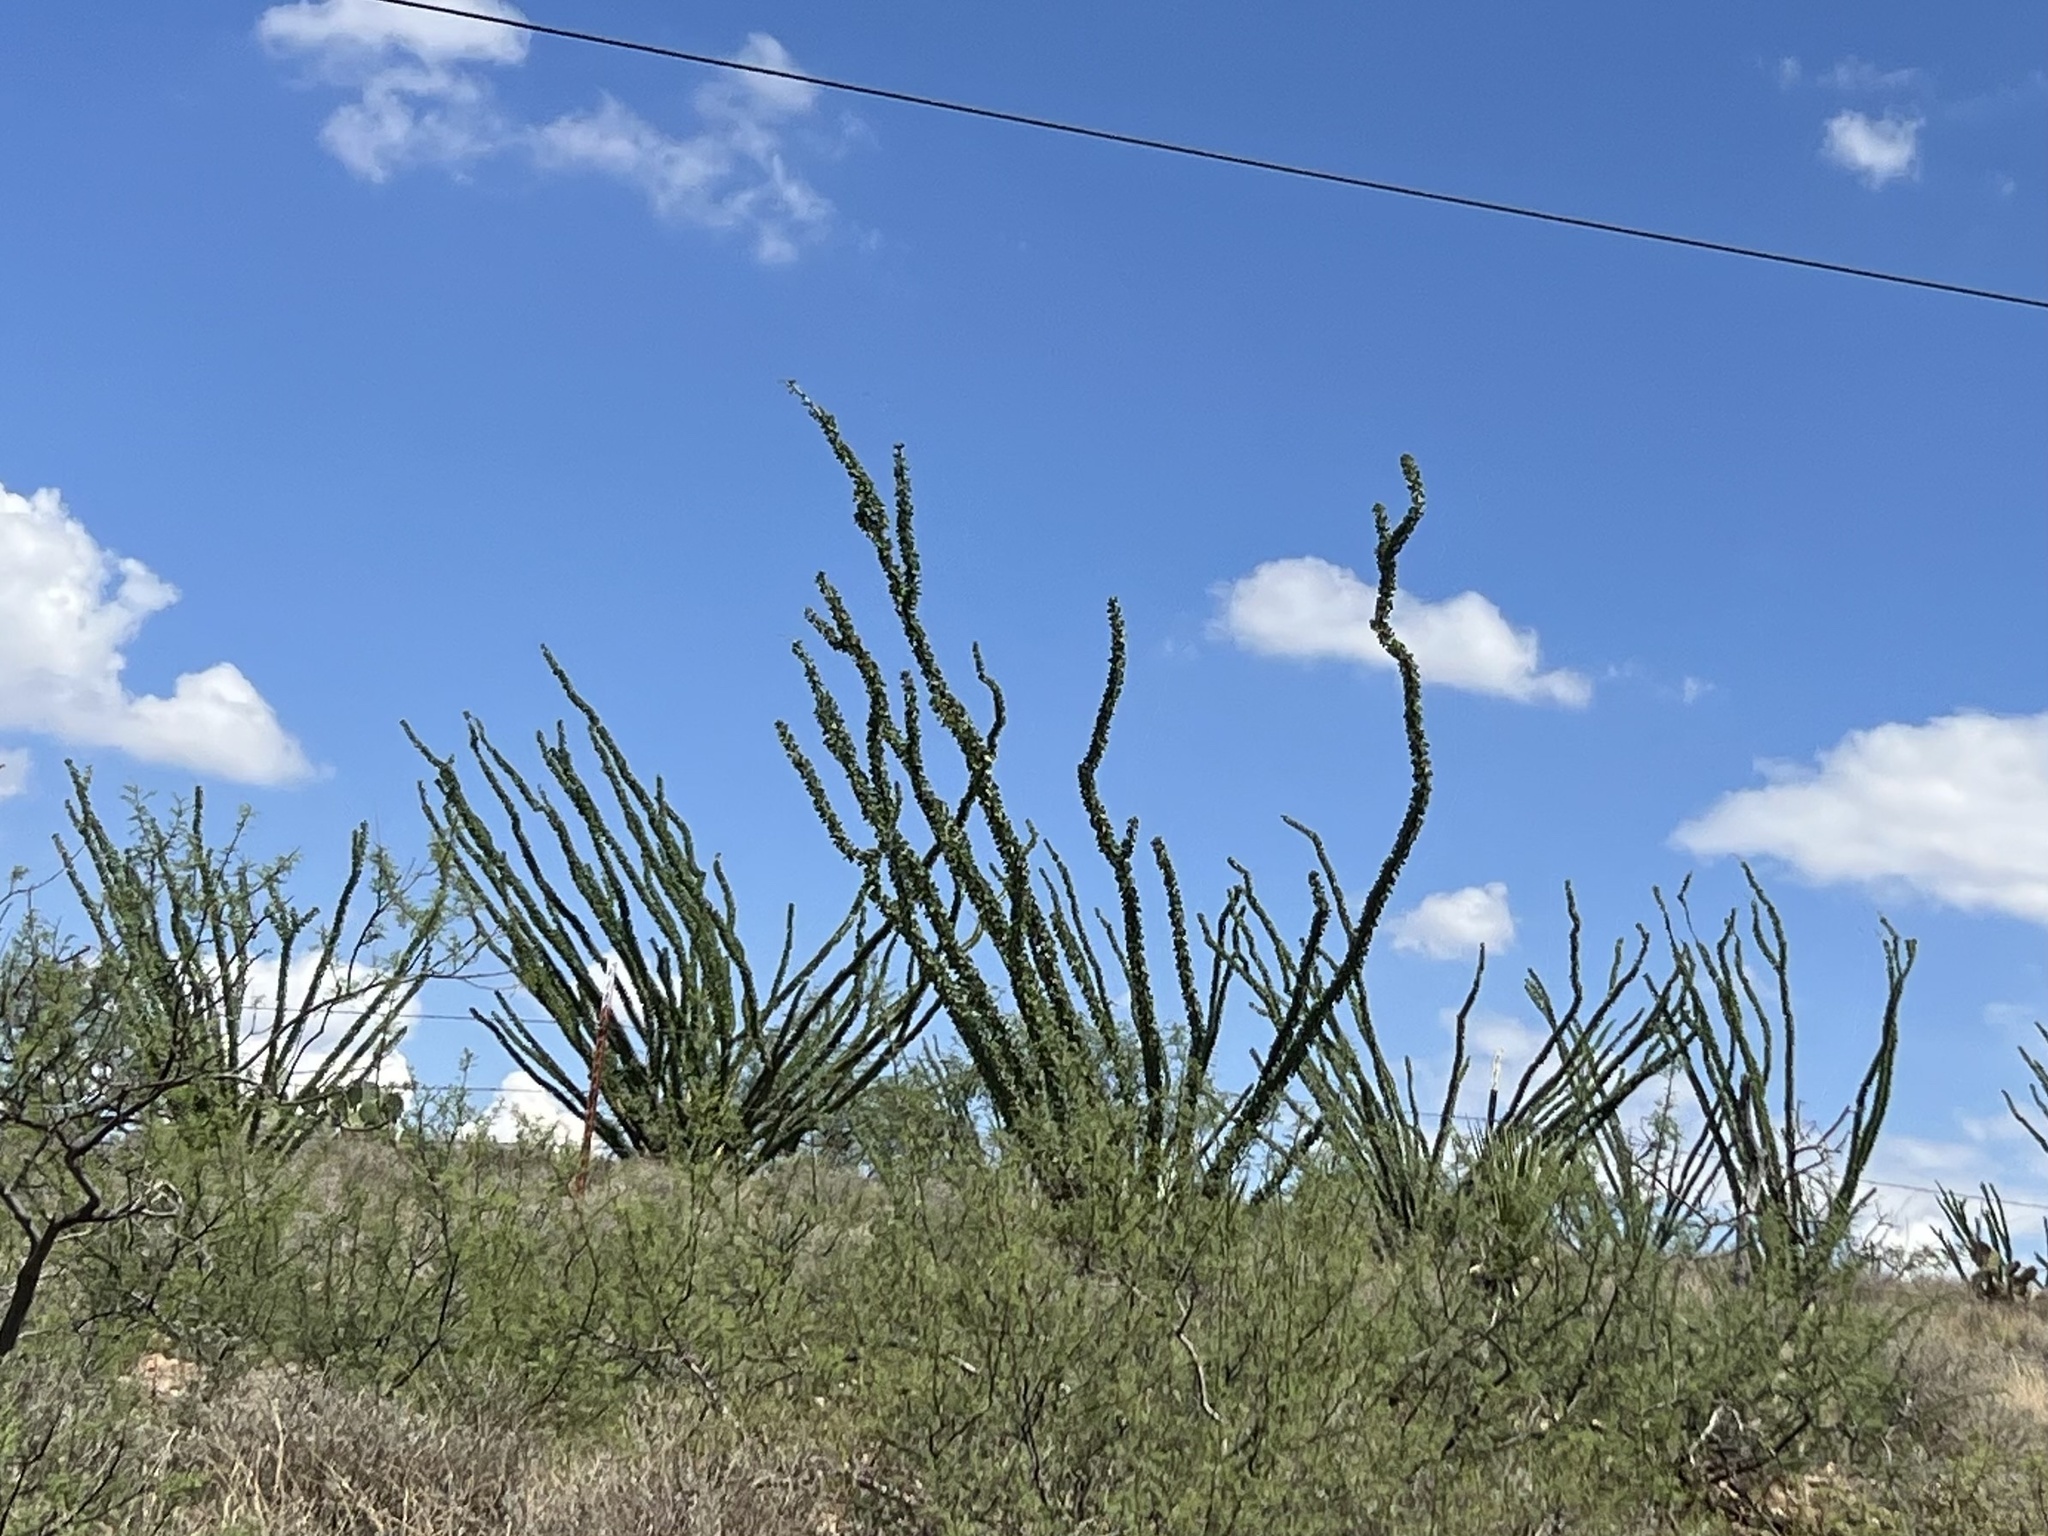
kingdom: Plantae
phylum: Tracheophyta
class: Magnoliopsida
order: Ericales
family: Fouquieriaceae
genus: Fouquieria
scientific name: Fouquieria splendens
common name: Vine-cactus
